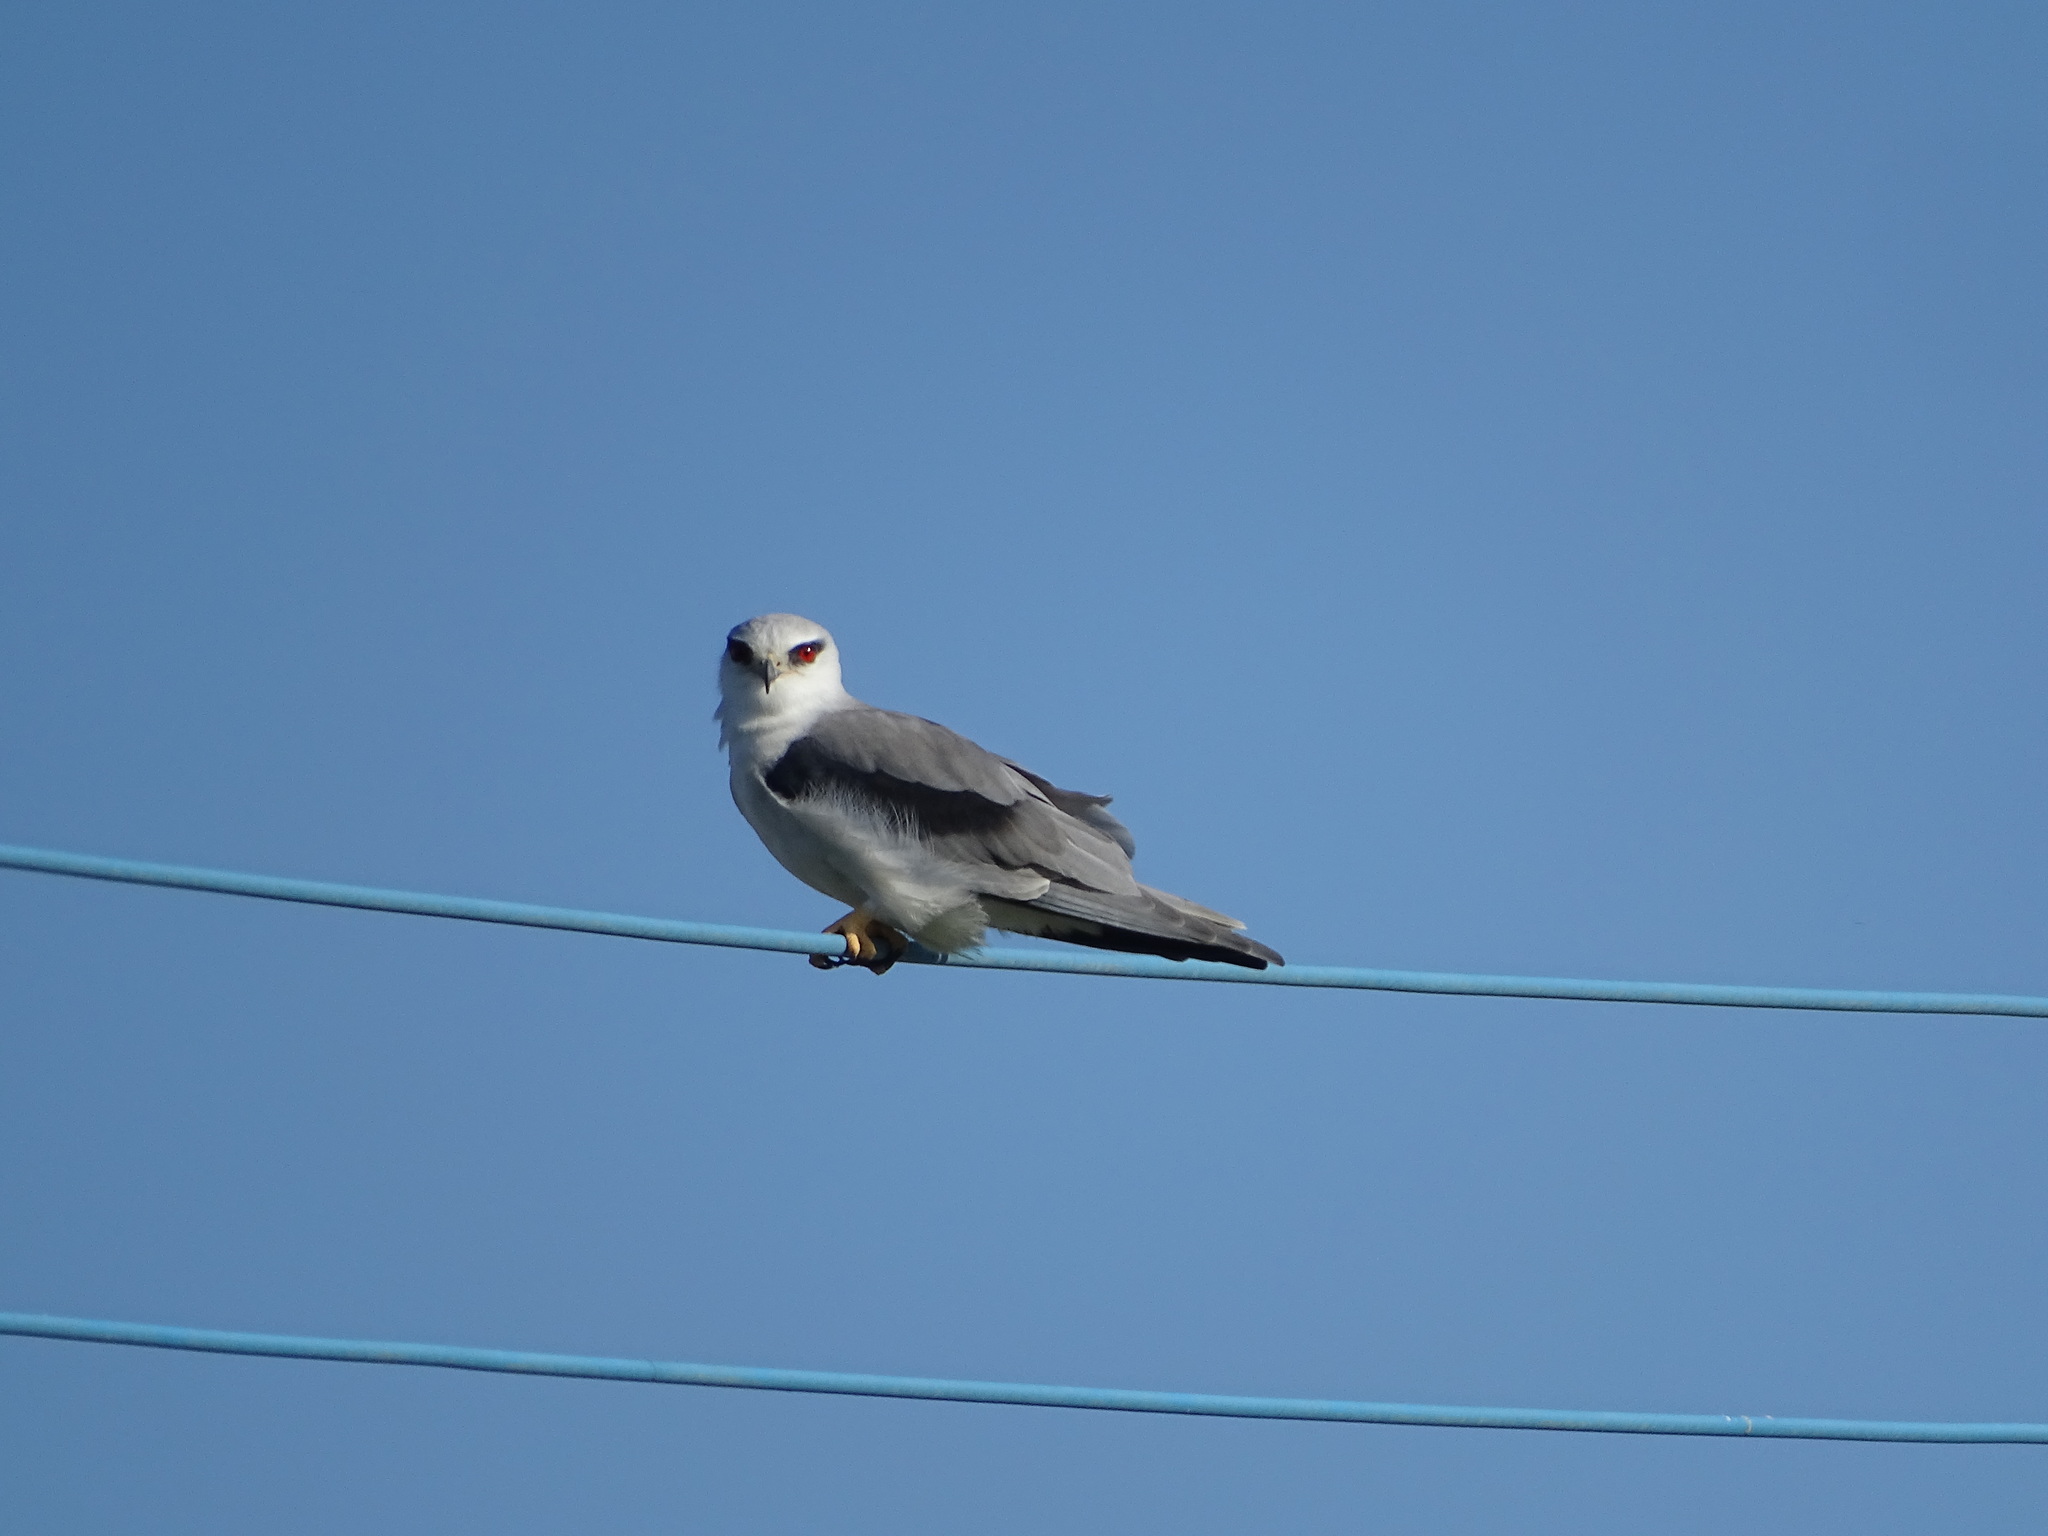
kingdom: Animalia
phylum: Chordata
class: Aves
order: Accipitriformes
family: Accipitridae
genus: Elanus
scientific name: Elanus caeruleus
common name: Black-winged kite
